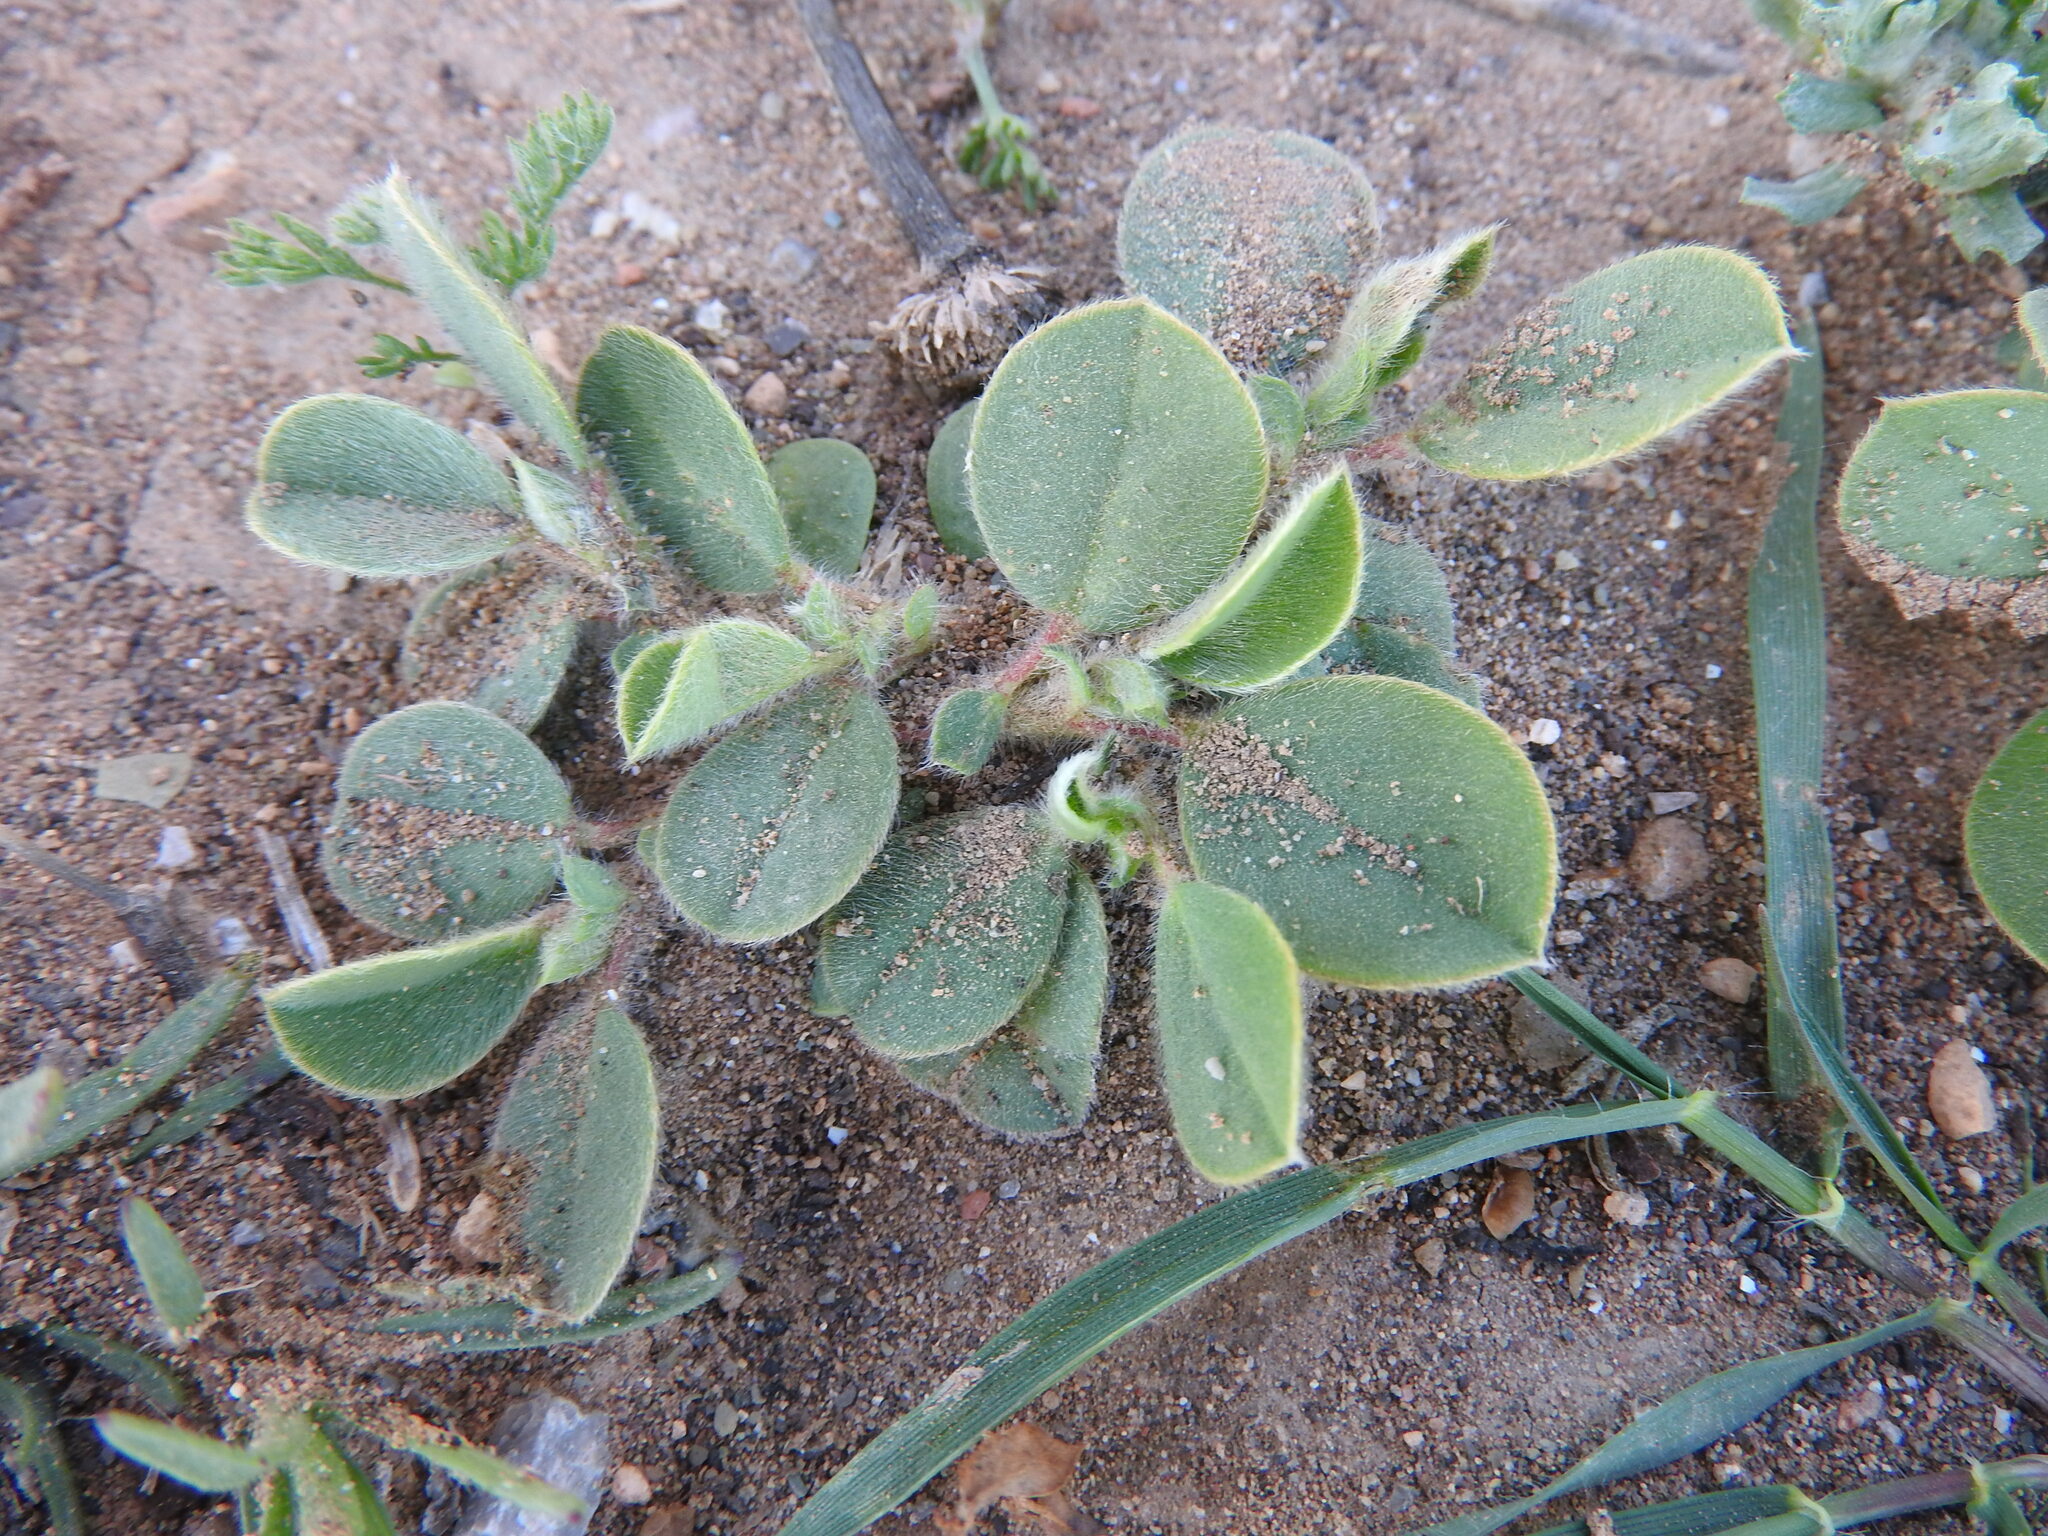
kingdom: Plantae
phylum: Tracheophyta
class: Magnoliopsida
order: Fabales
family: Fabaceae
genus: Tripodion
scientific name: Tripodion tetraphyllum
